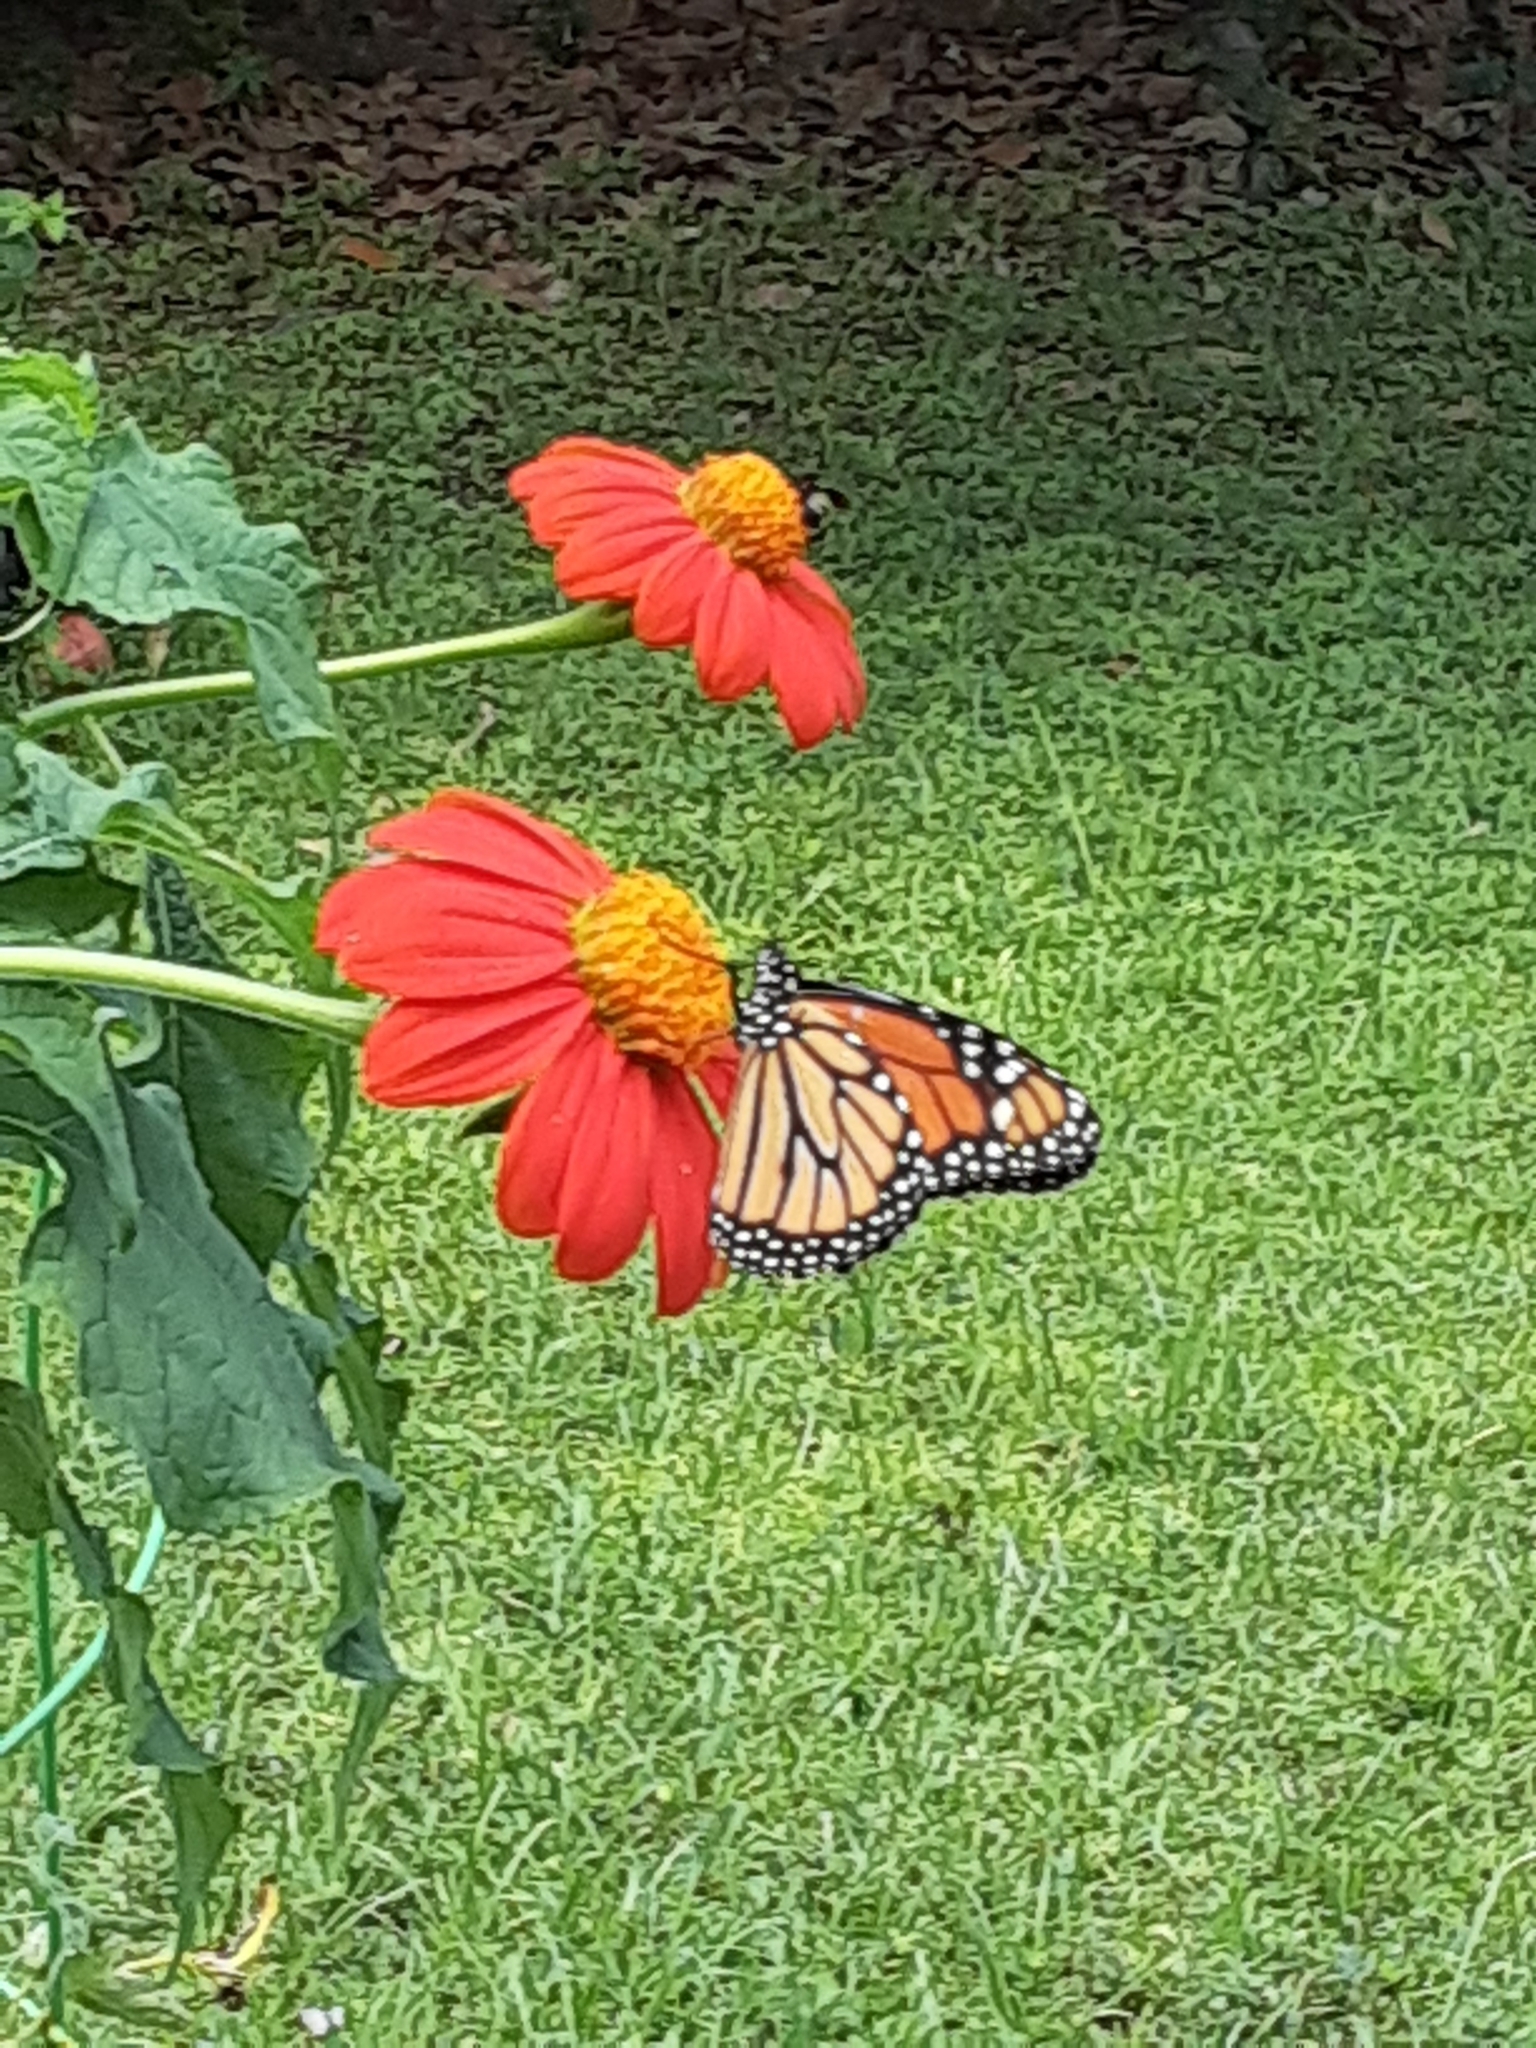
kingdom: Animalia
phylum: Arthropoda
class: Insecta
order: Lepidoptera
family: Nymphalidae
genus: Danaus
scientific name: Danaus plexippus
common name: Monarch
